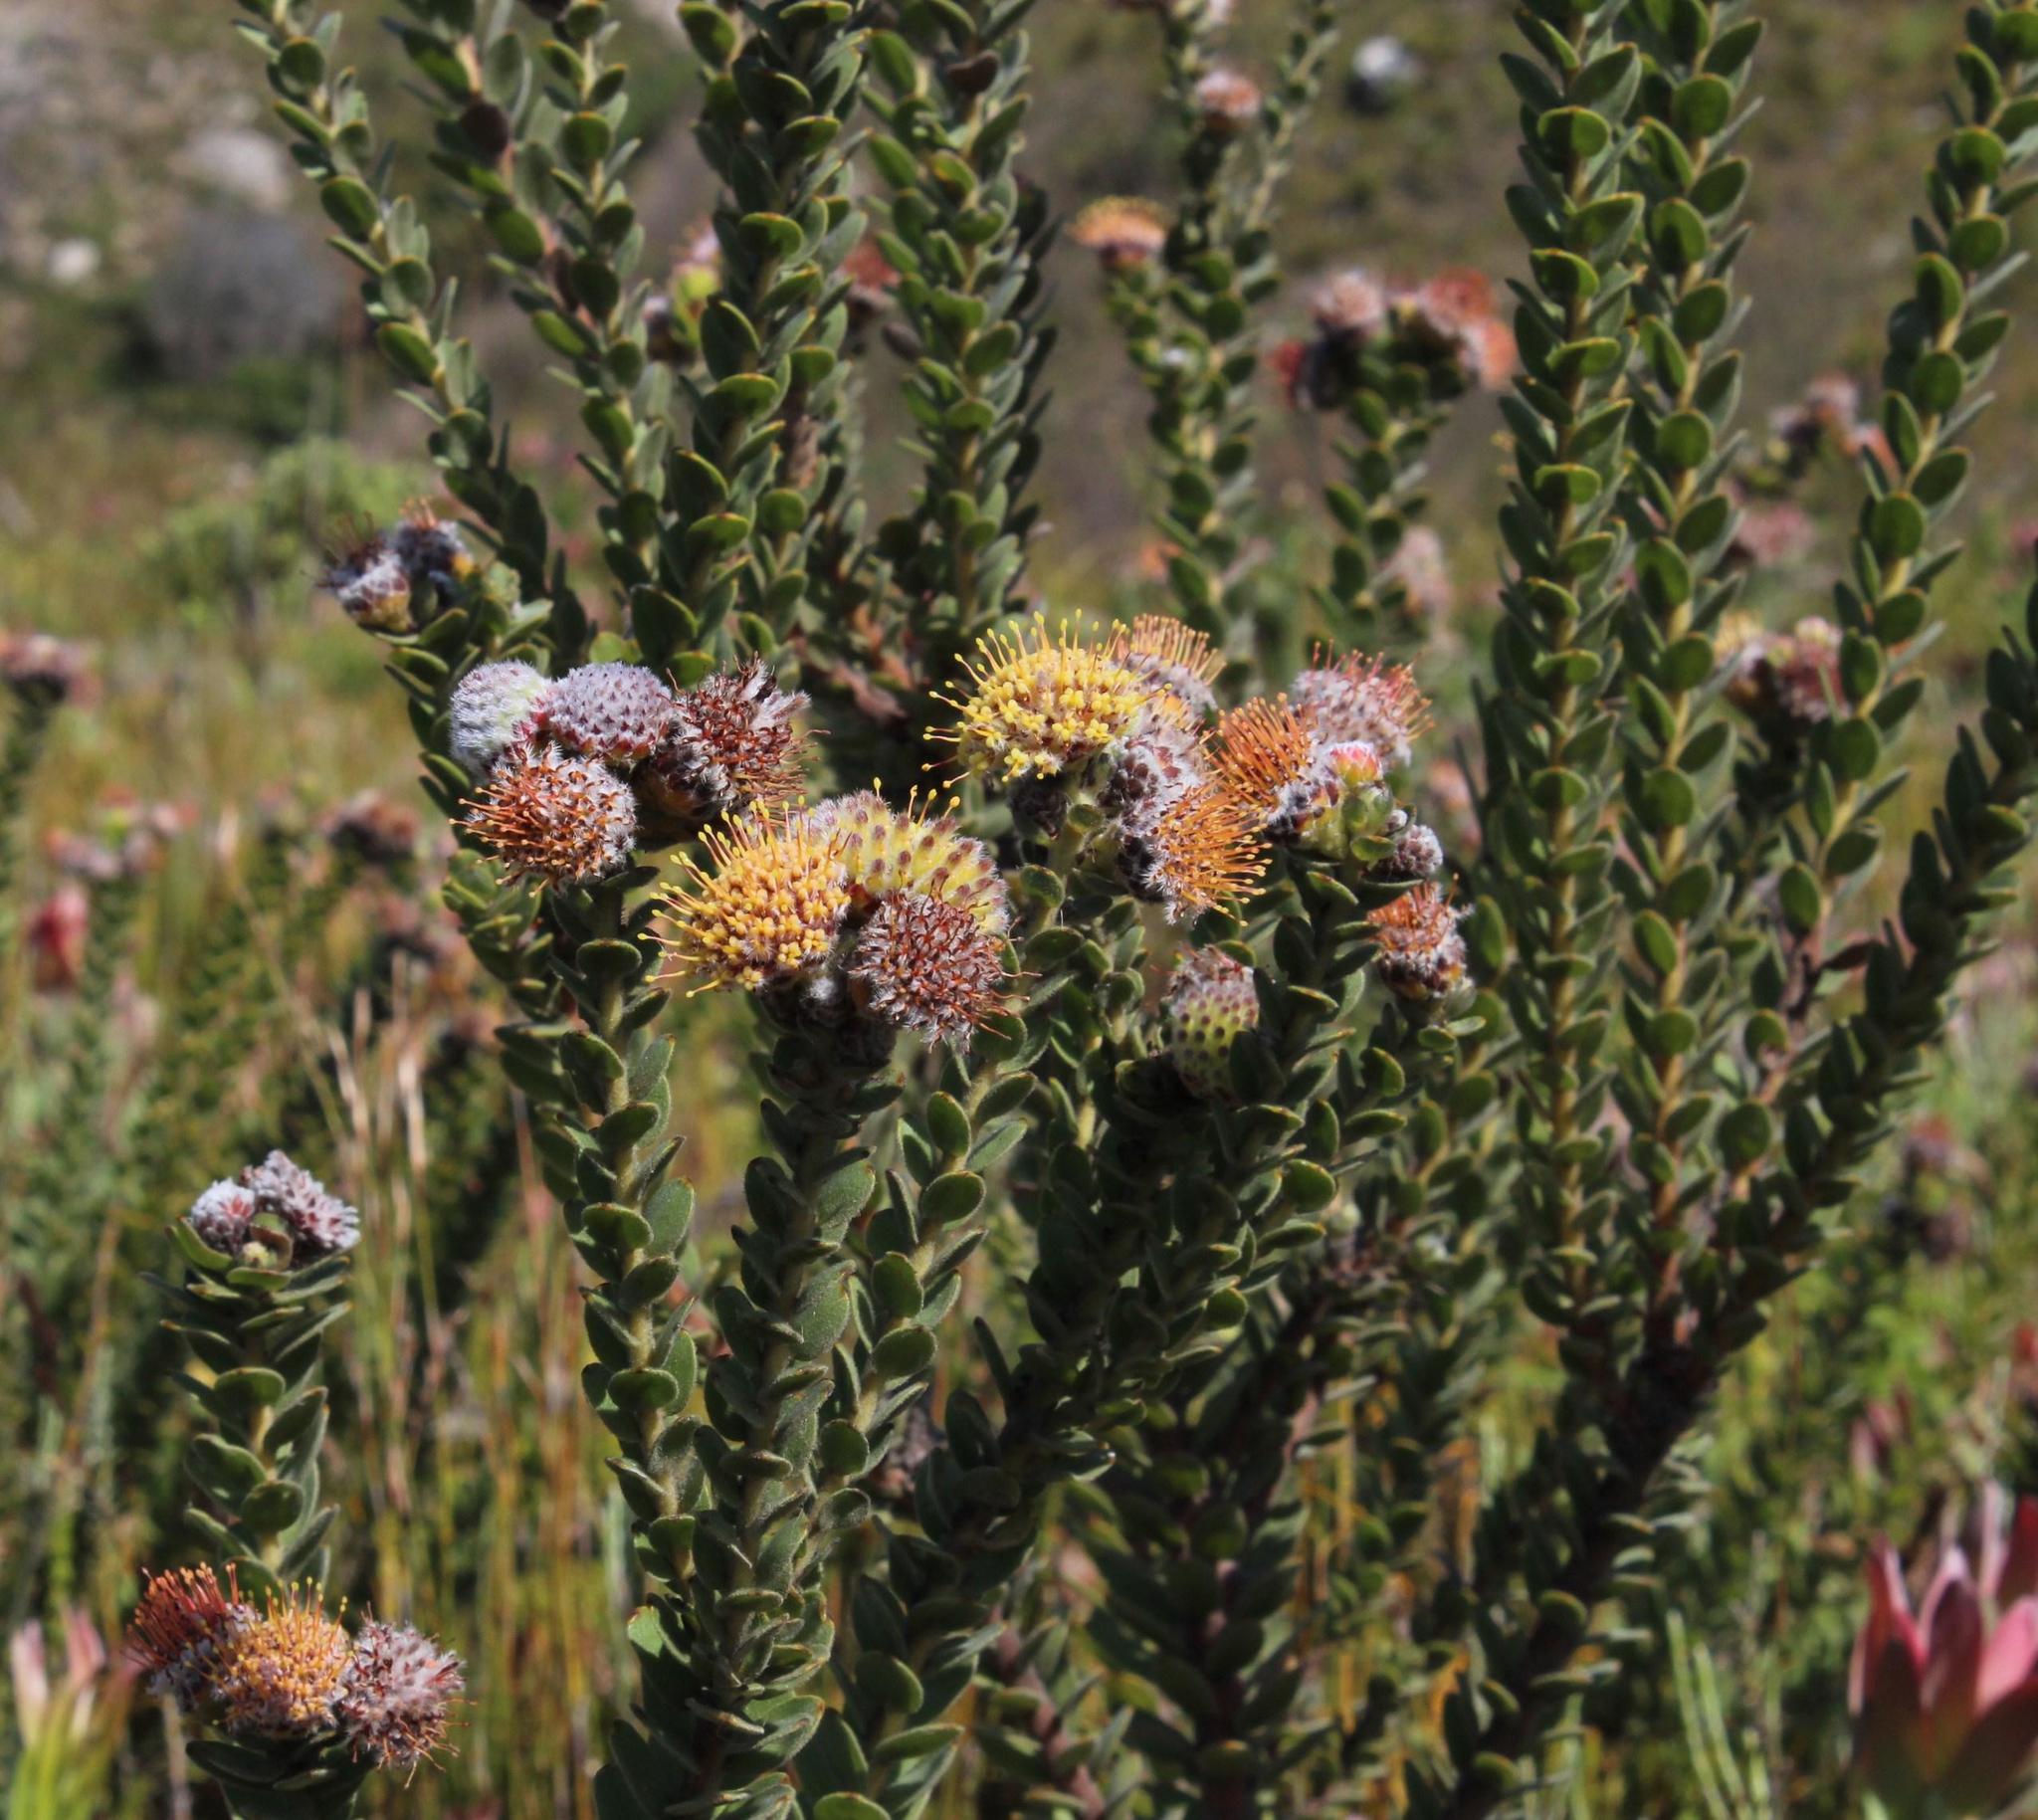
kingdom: Plantae
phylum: Tracheophyta
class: Magnoliopsida
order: Proteales
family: Proteaceae
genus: Leucospermum
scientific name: Leucospermum truncatulum
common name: Oval-leaf pincushion
